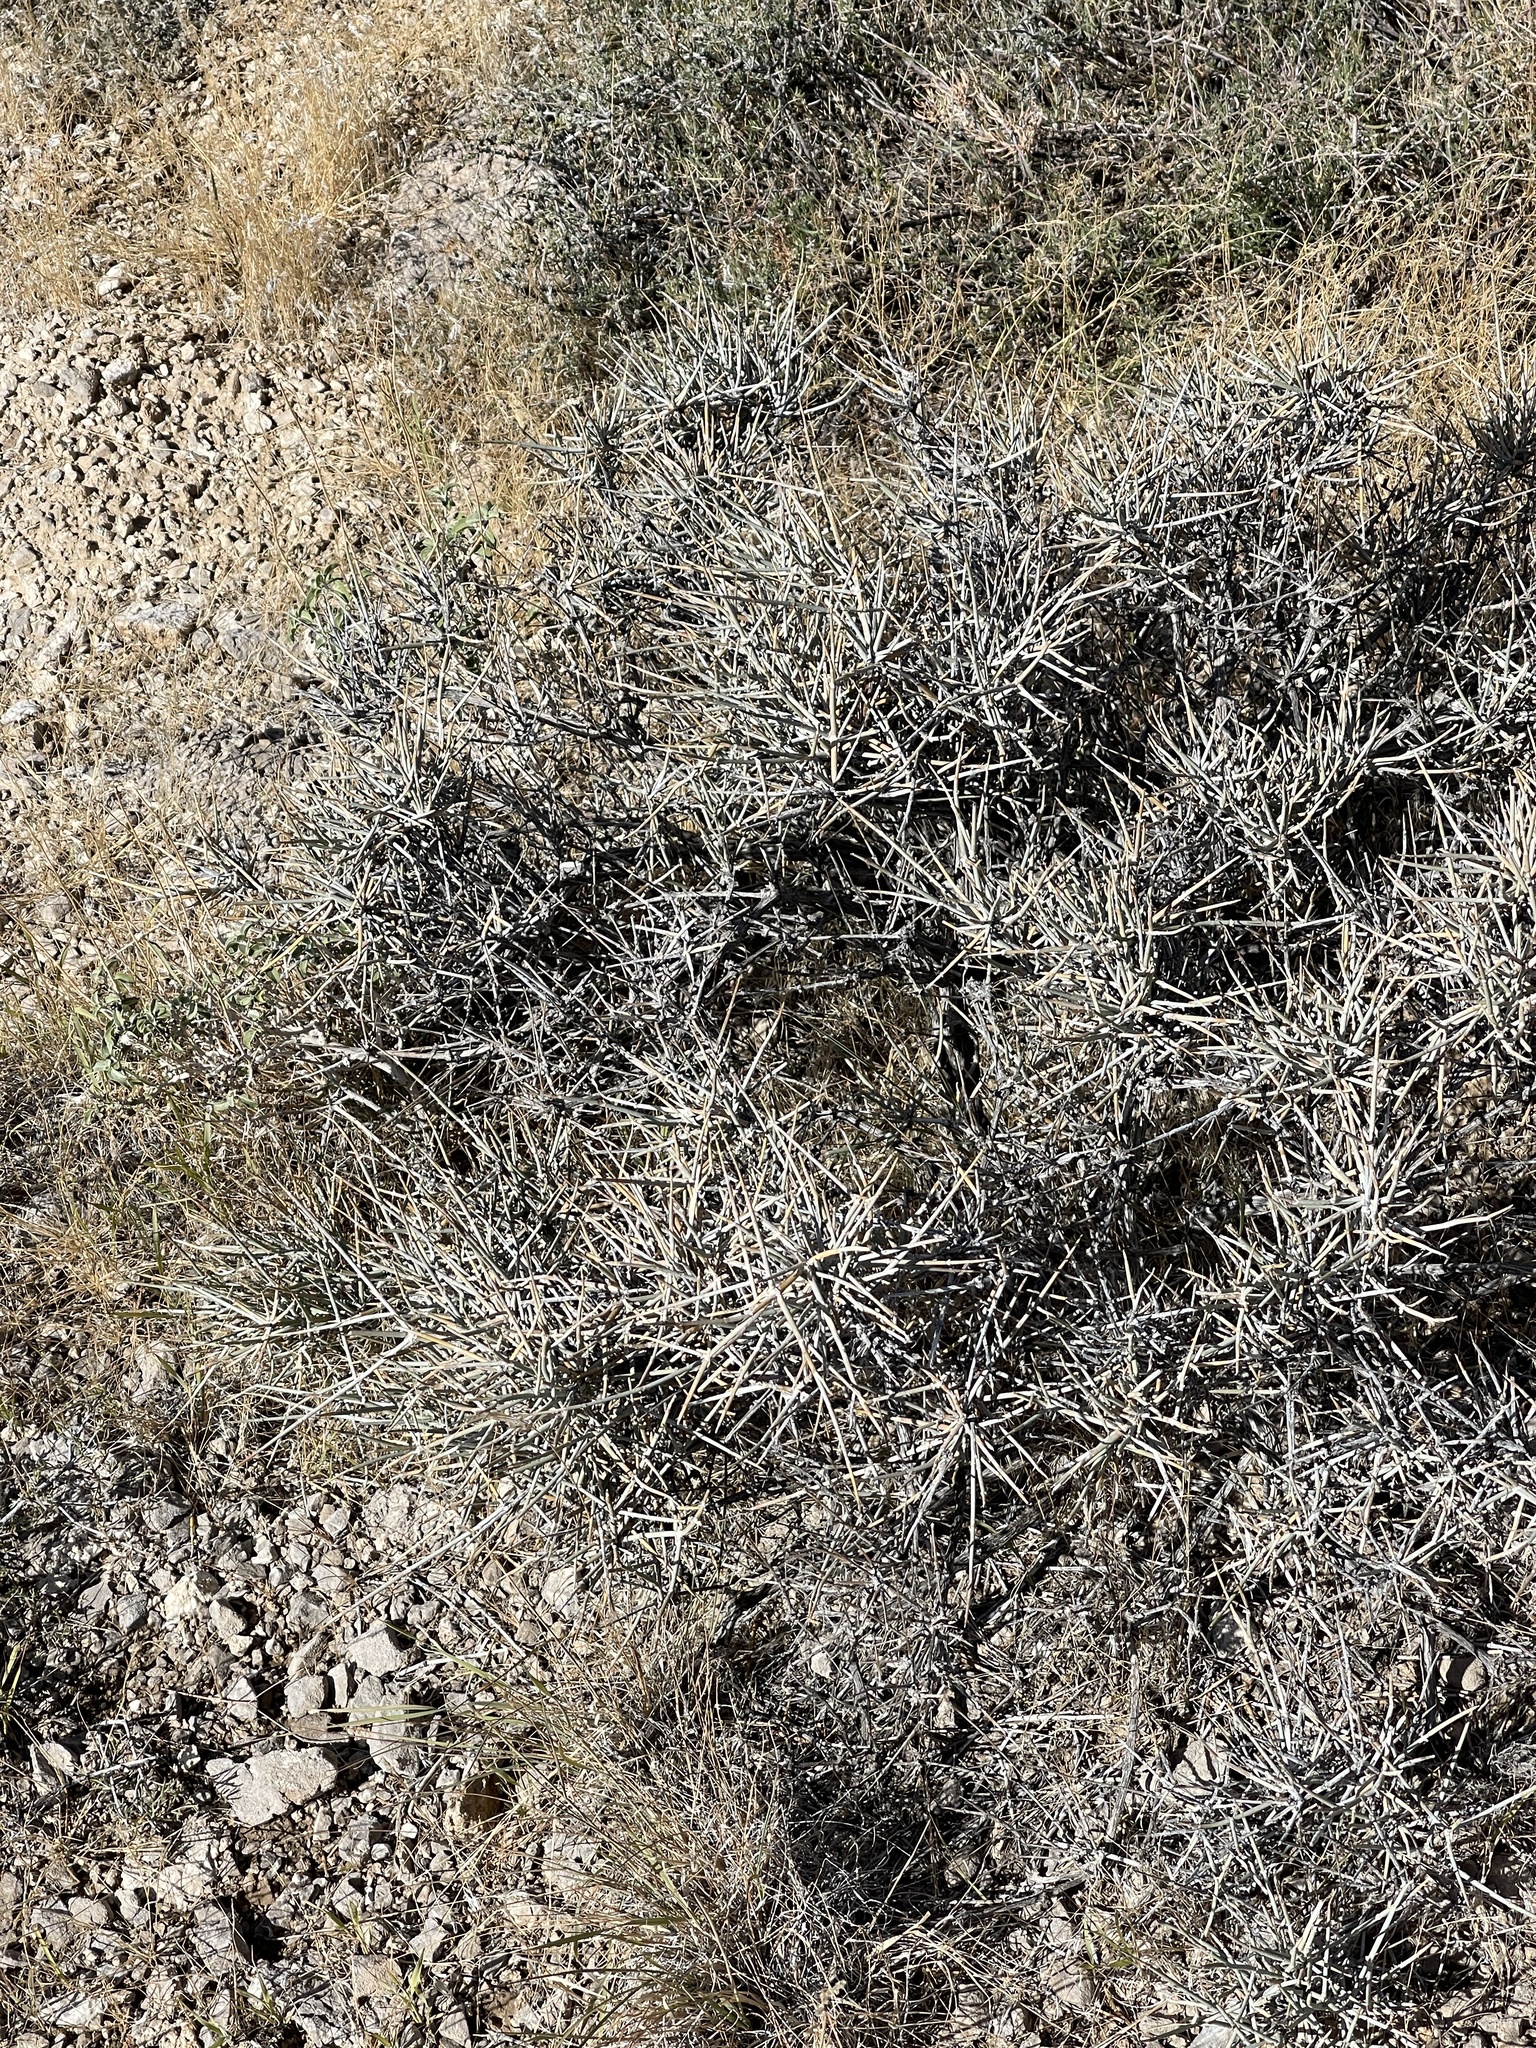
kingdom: Plantae
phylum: Tracheophyta
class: Gnetopsida
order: Ephedrales
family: Ephedraceae
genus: Ephedra
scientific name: Ephedra nevadensis
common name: Gray ephedra
